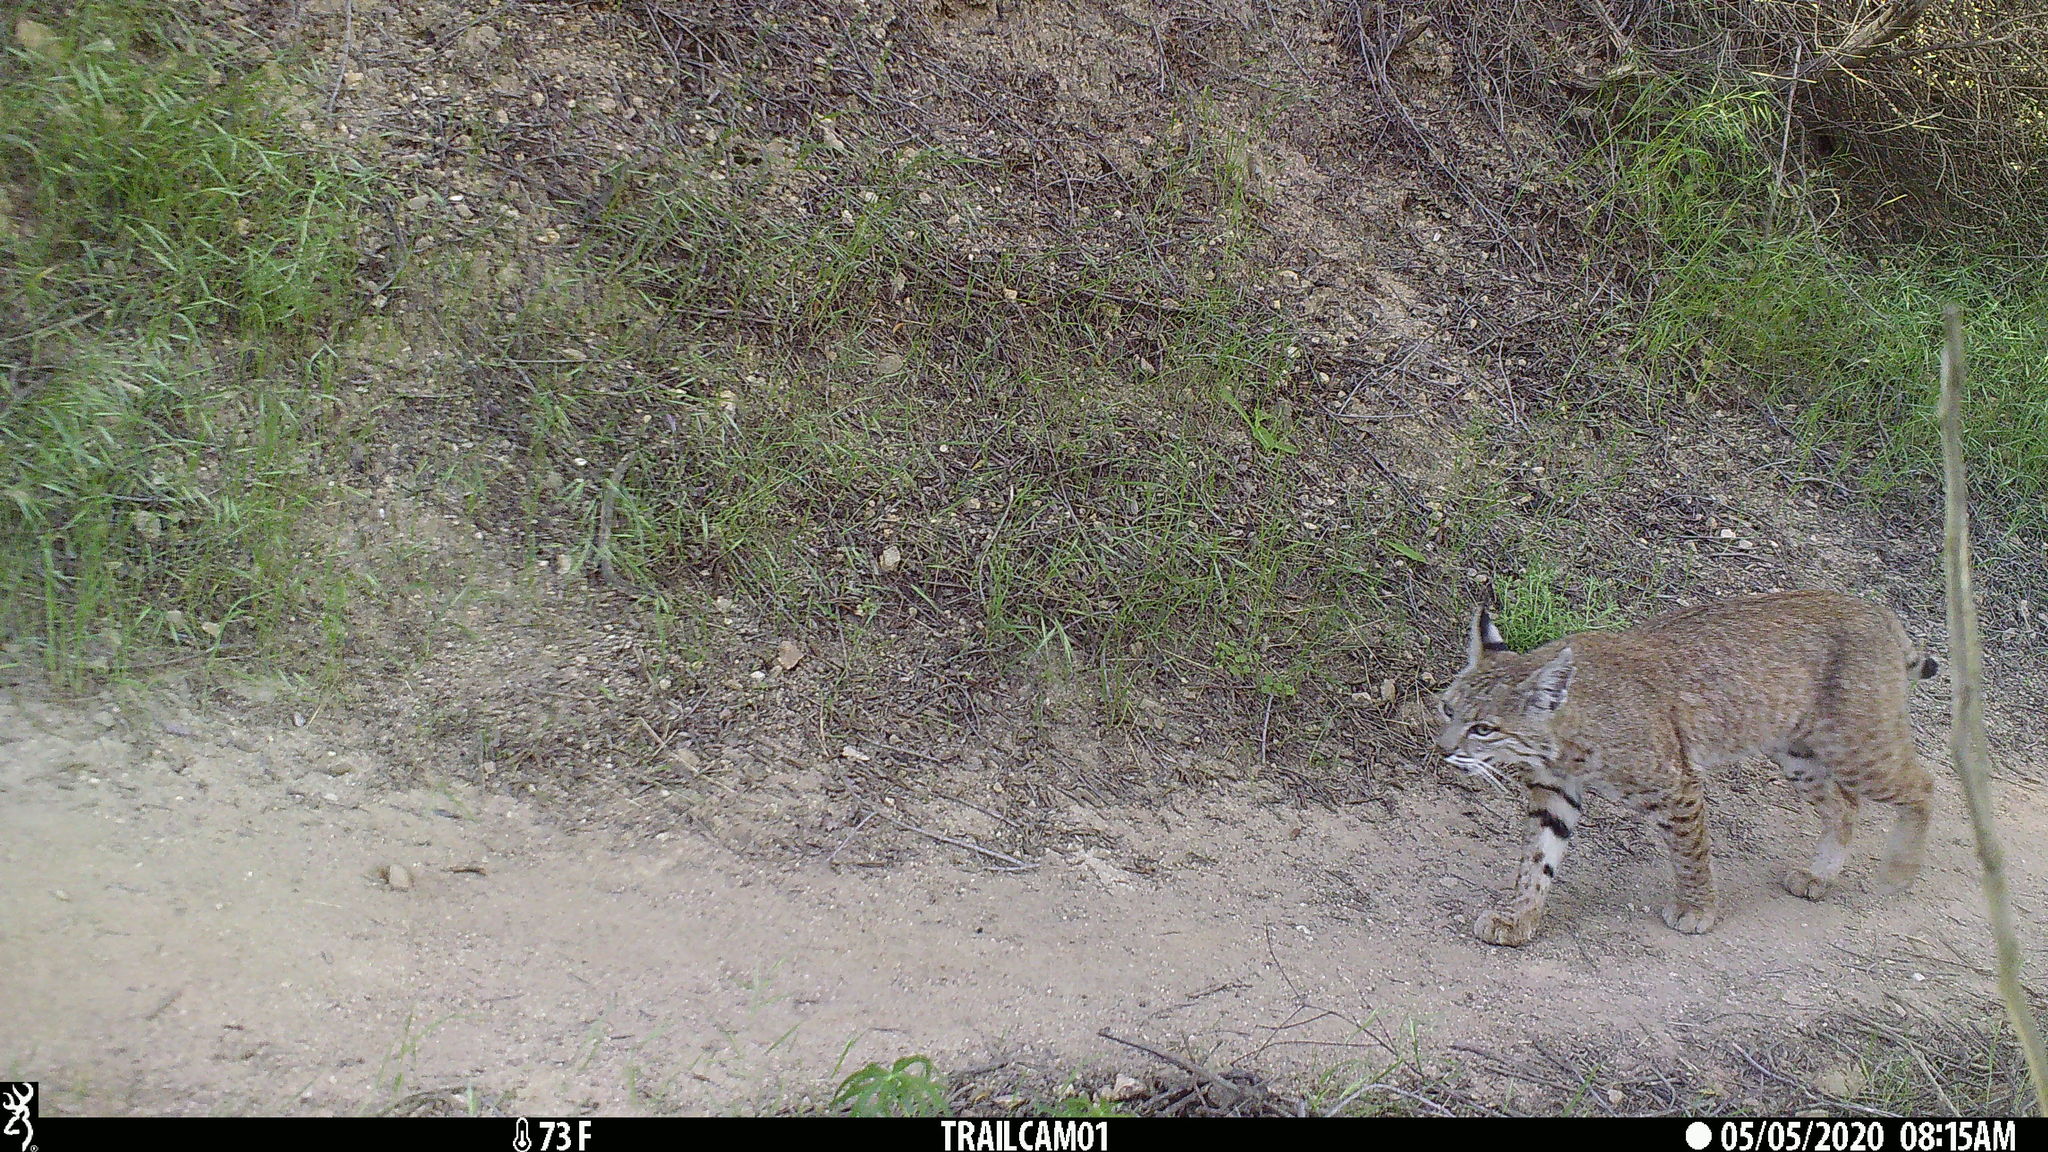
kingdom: Animalia
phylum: Chordata
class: Mammalia
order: Carnivora
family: Felidae
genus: Lynx
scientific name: Lynx rufus
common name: Bobcat
